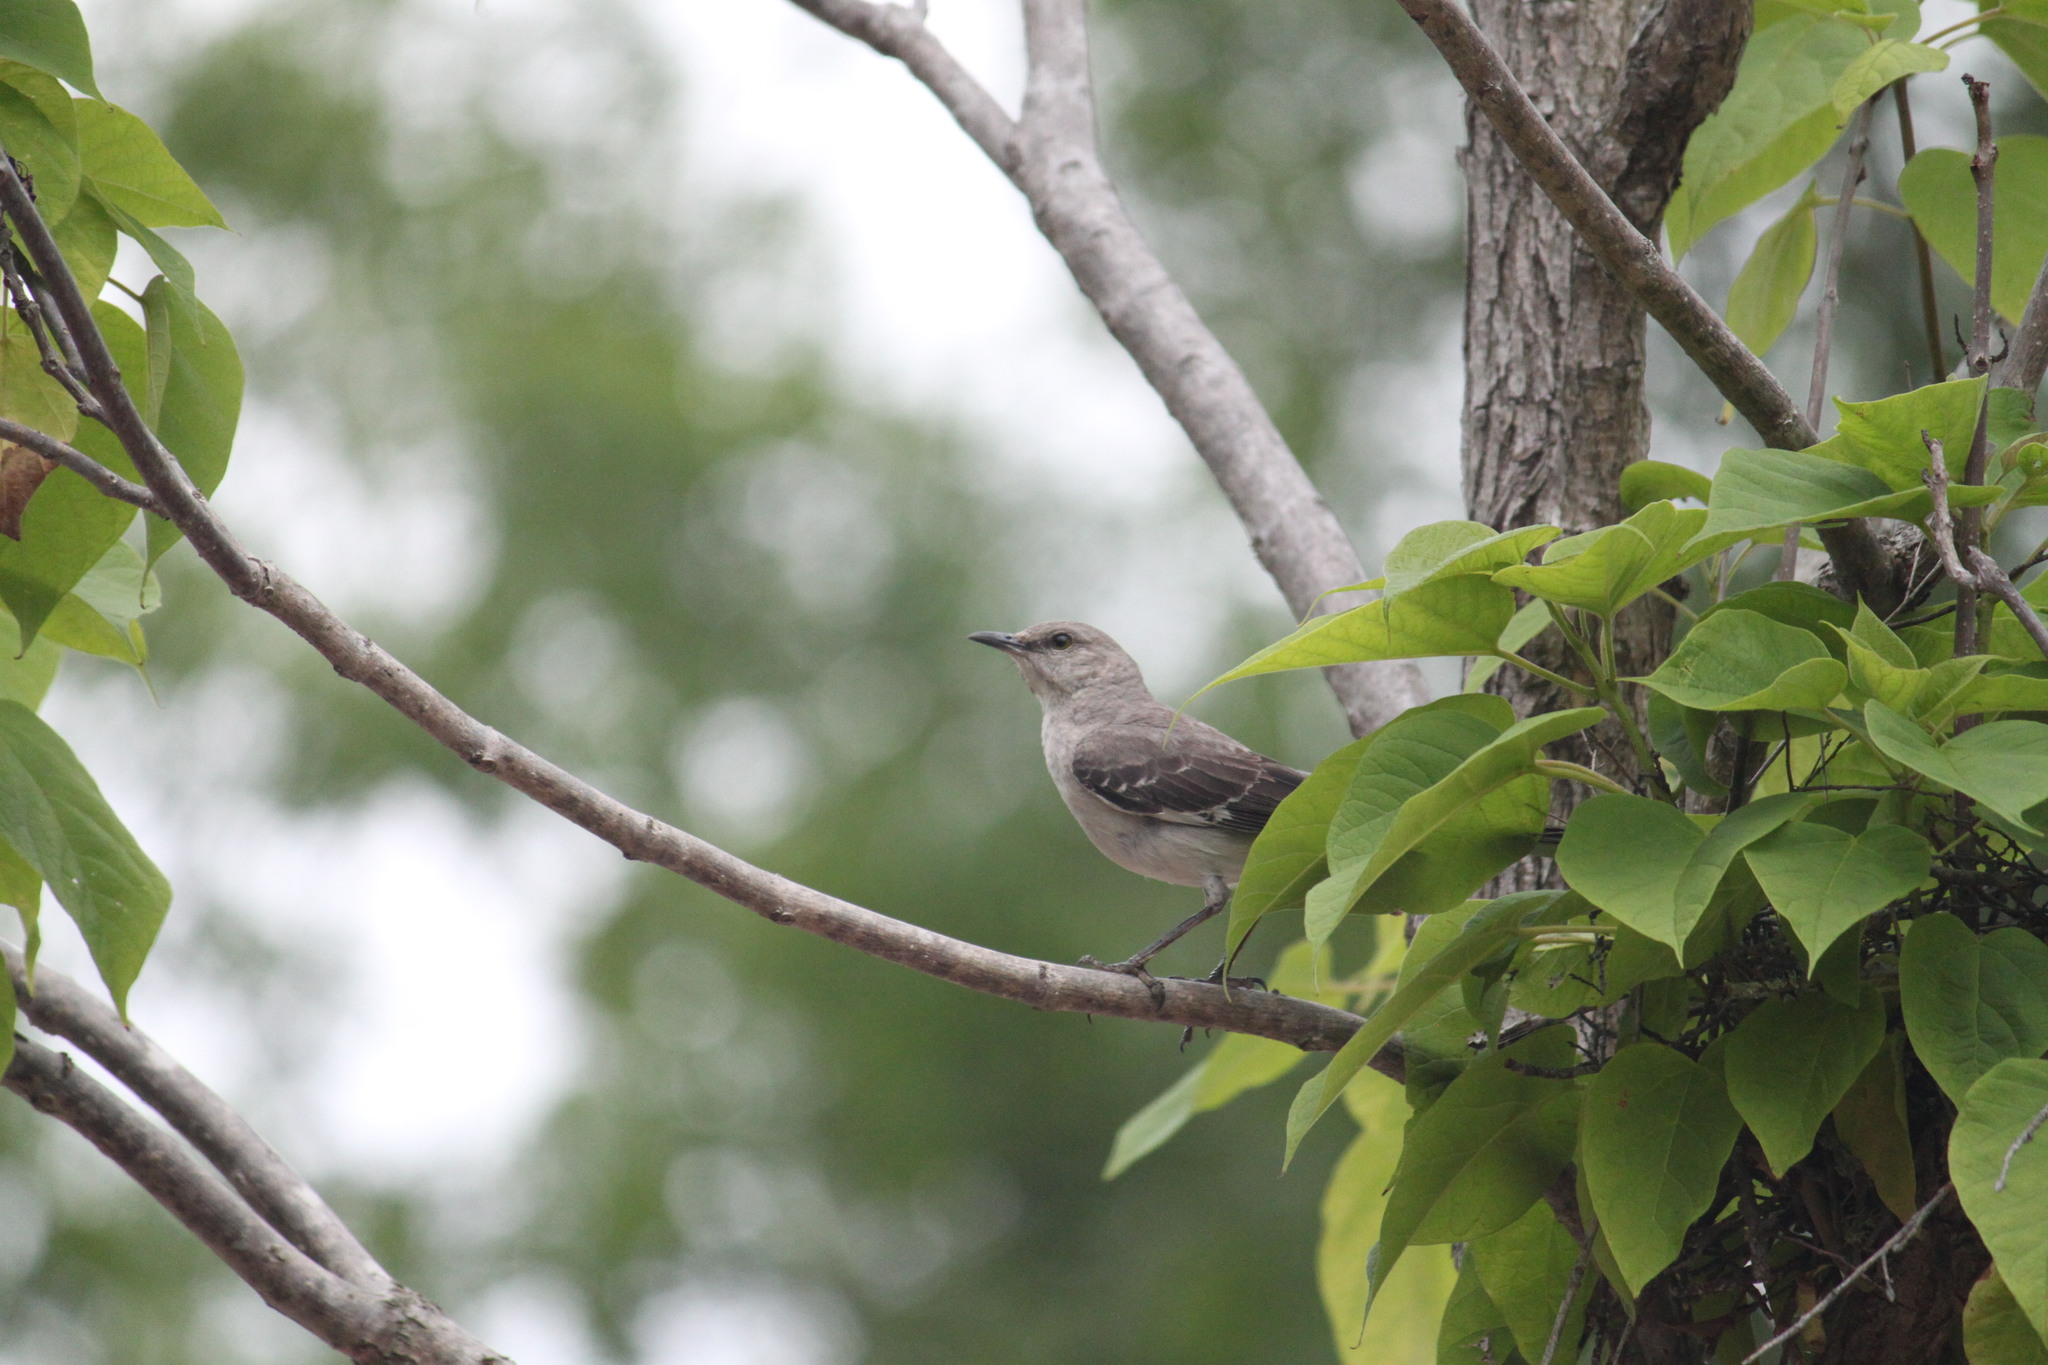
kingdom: Animalia
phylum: Chordata
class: Aves
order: Passeriformes
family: Mimidae
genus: Mimus
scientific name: Mimus polyglottos
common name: Northern mockingbird
